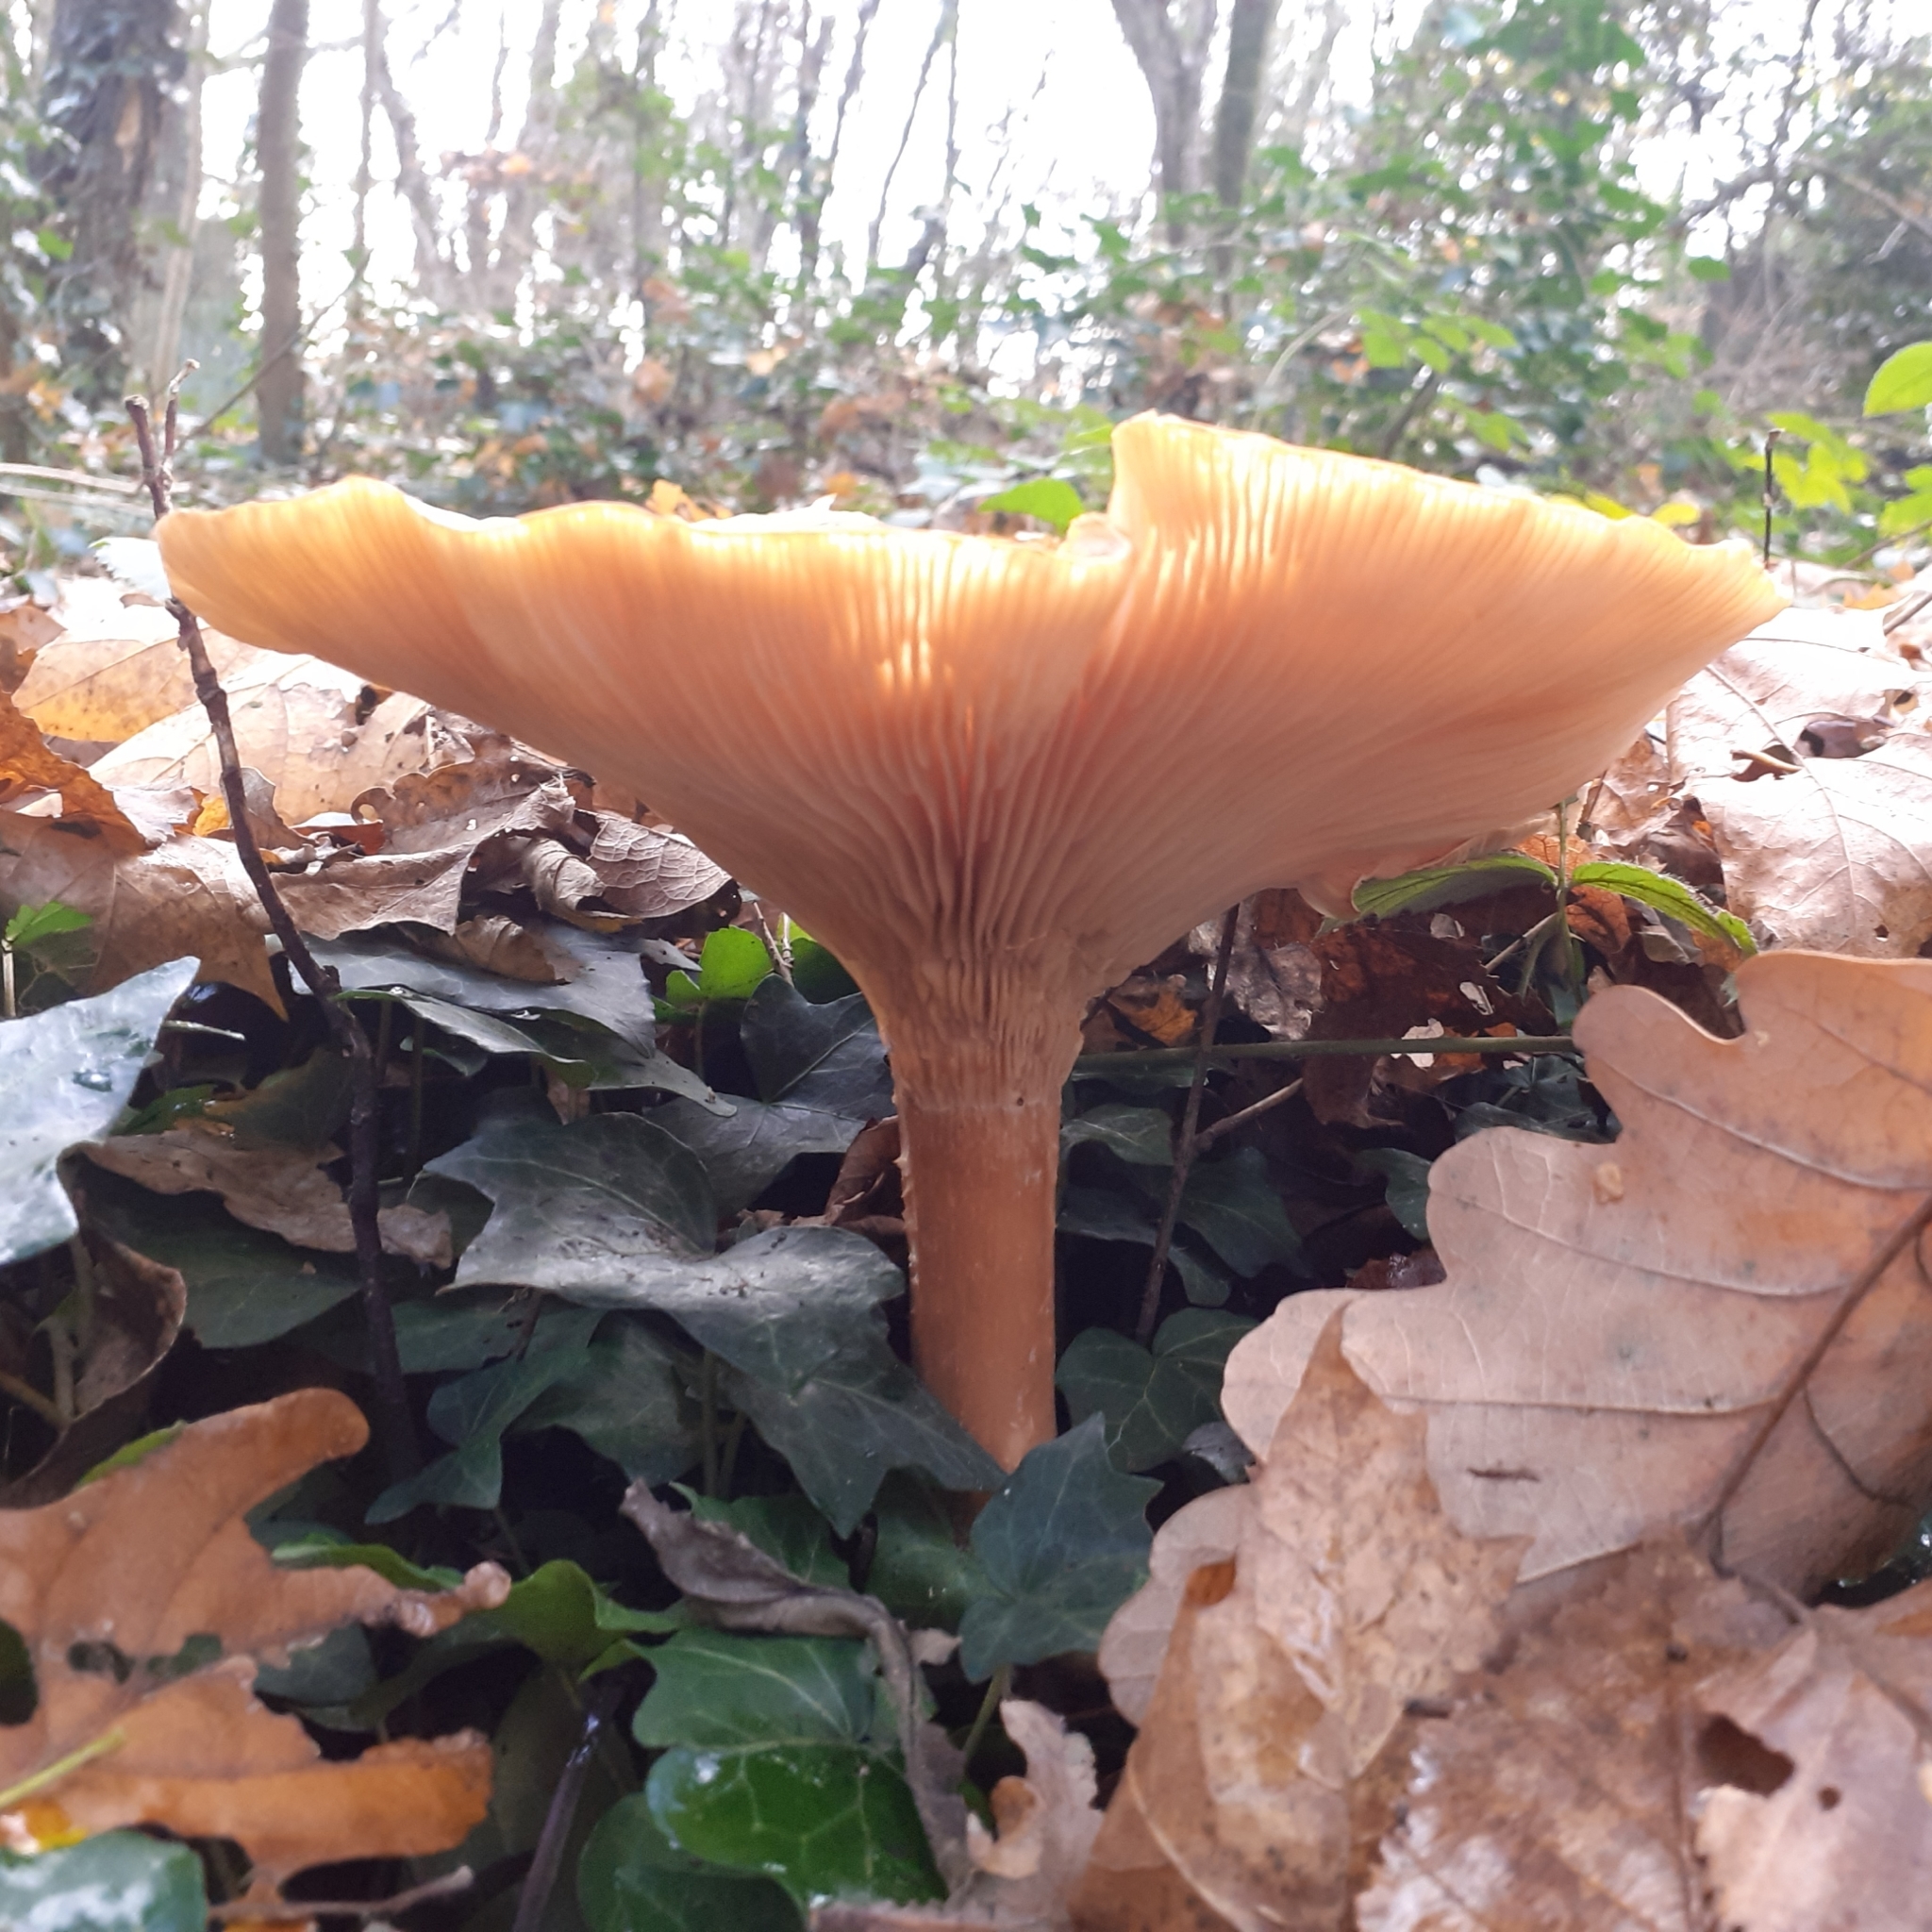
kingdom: Fungi
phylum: Basidiomycota
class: Agaricomycetes
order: Agaricales
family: Tricholomataceae
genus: Infundibulicybe
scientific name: Infundibulicybe geotropa
